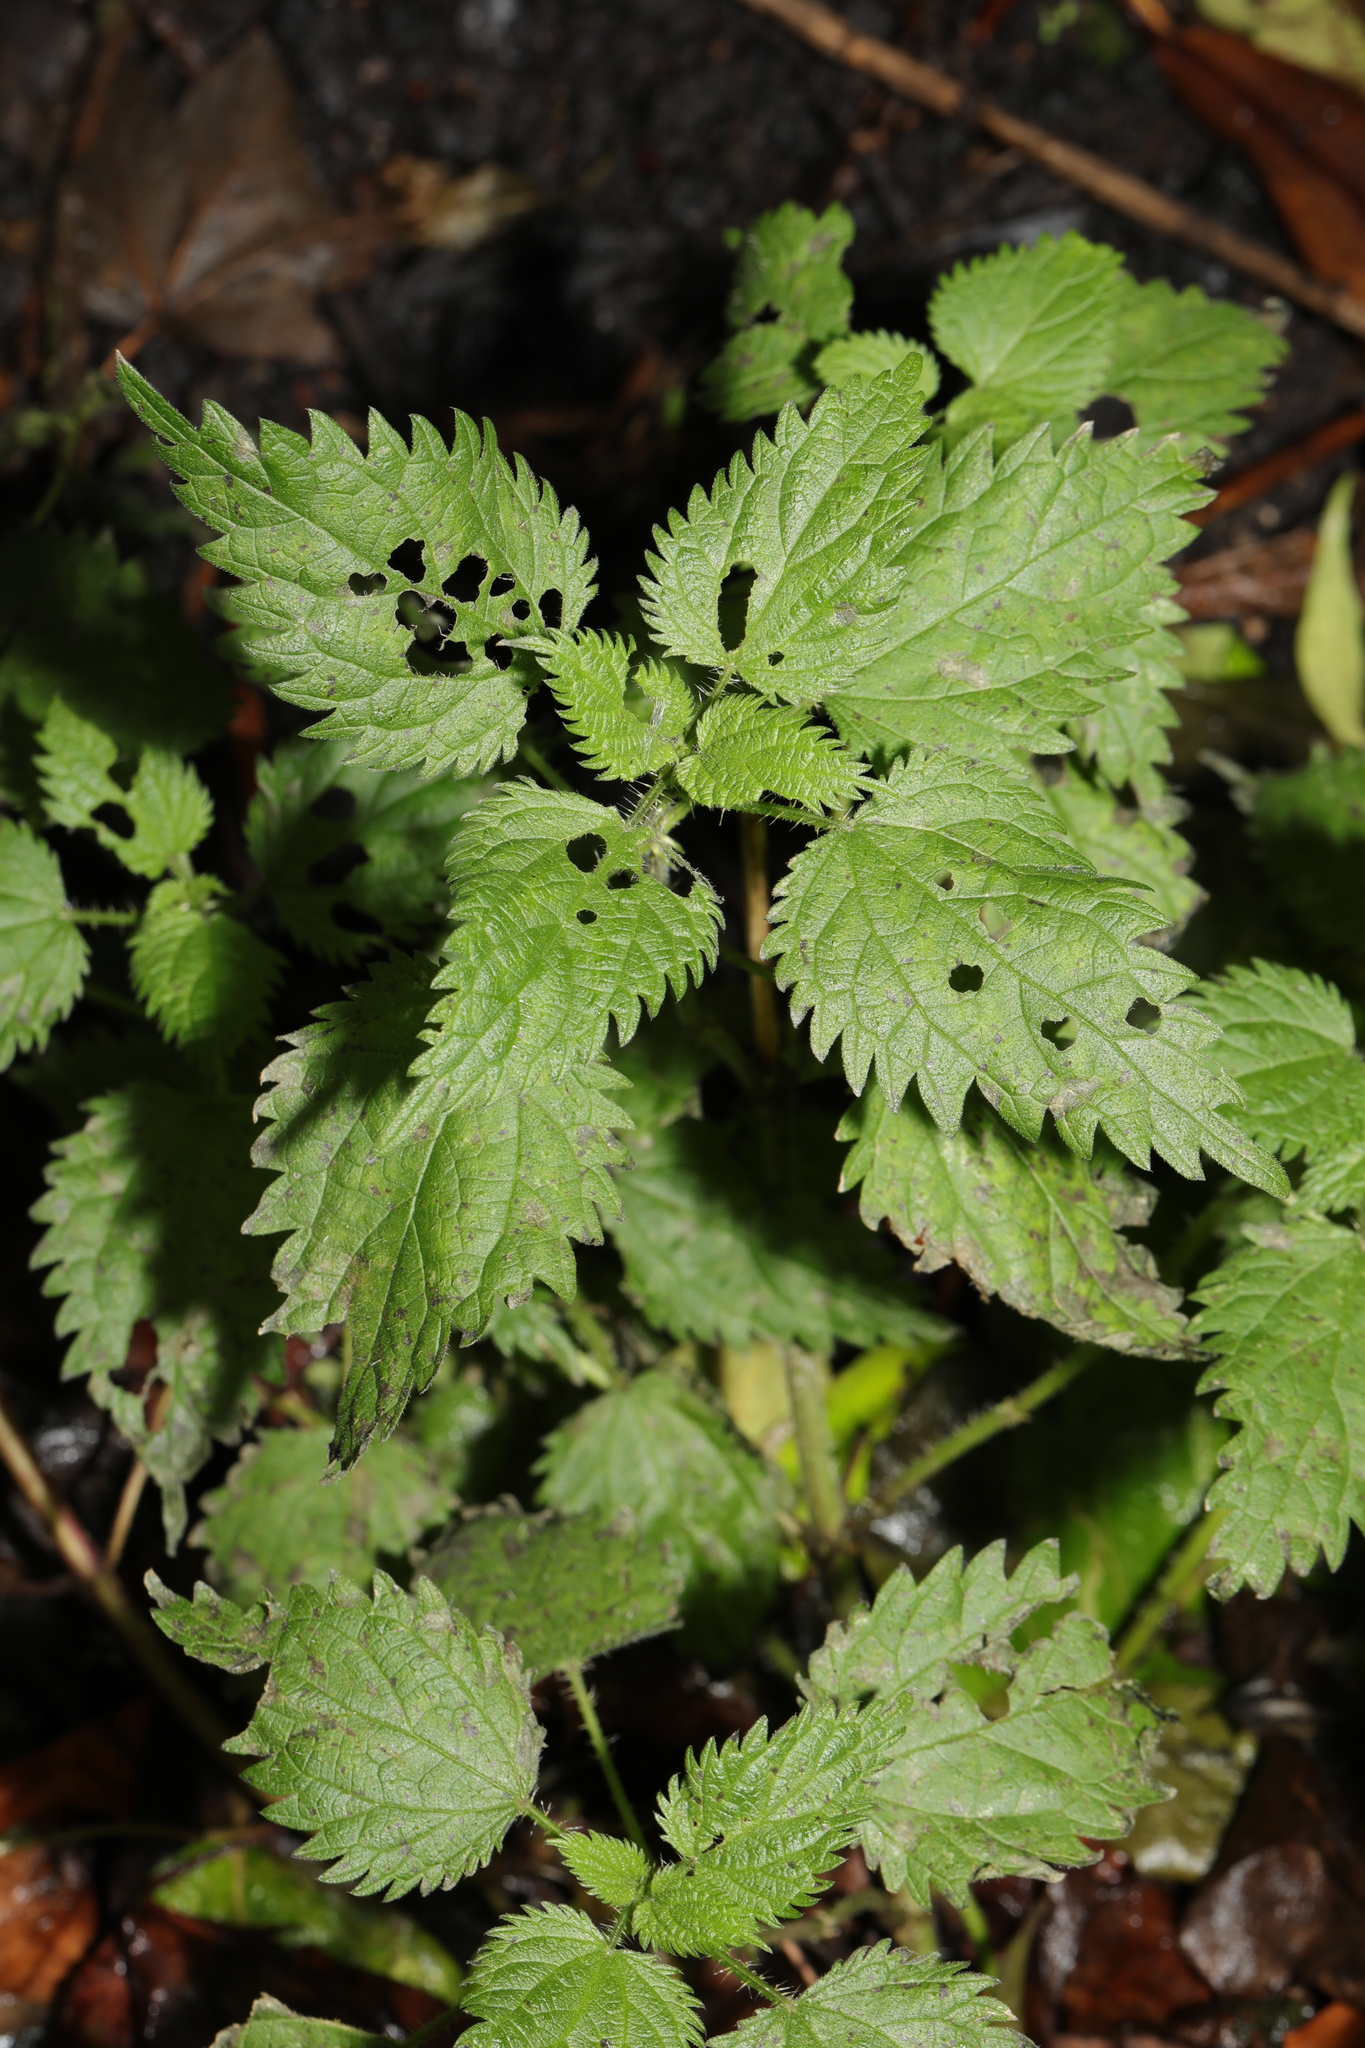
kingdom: Plantae
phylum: Tracheophyta
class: Magnoliopsida
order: Rosales
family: Urticaceae
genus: Urtica
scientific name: Urtica dioica
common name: Common nettle
